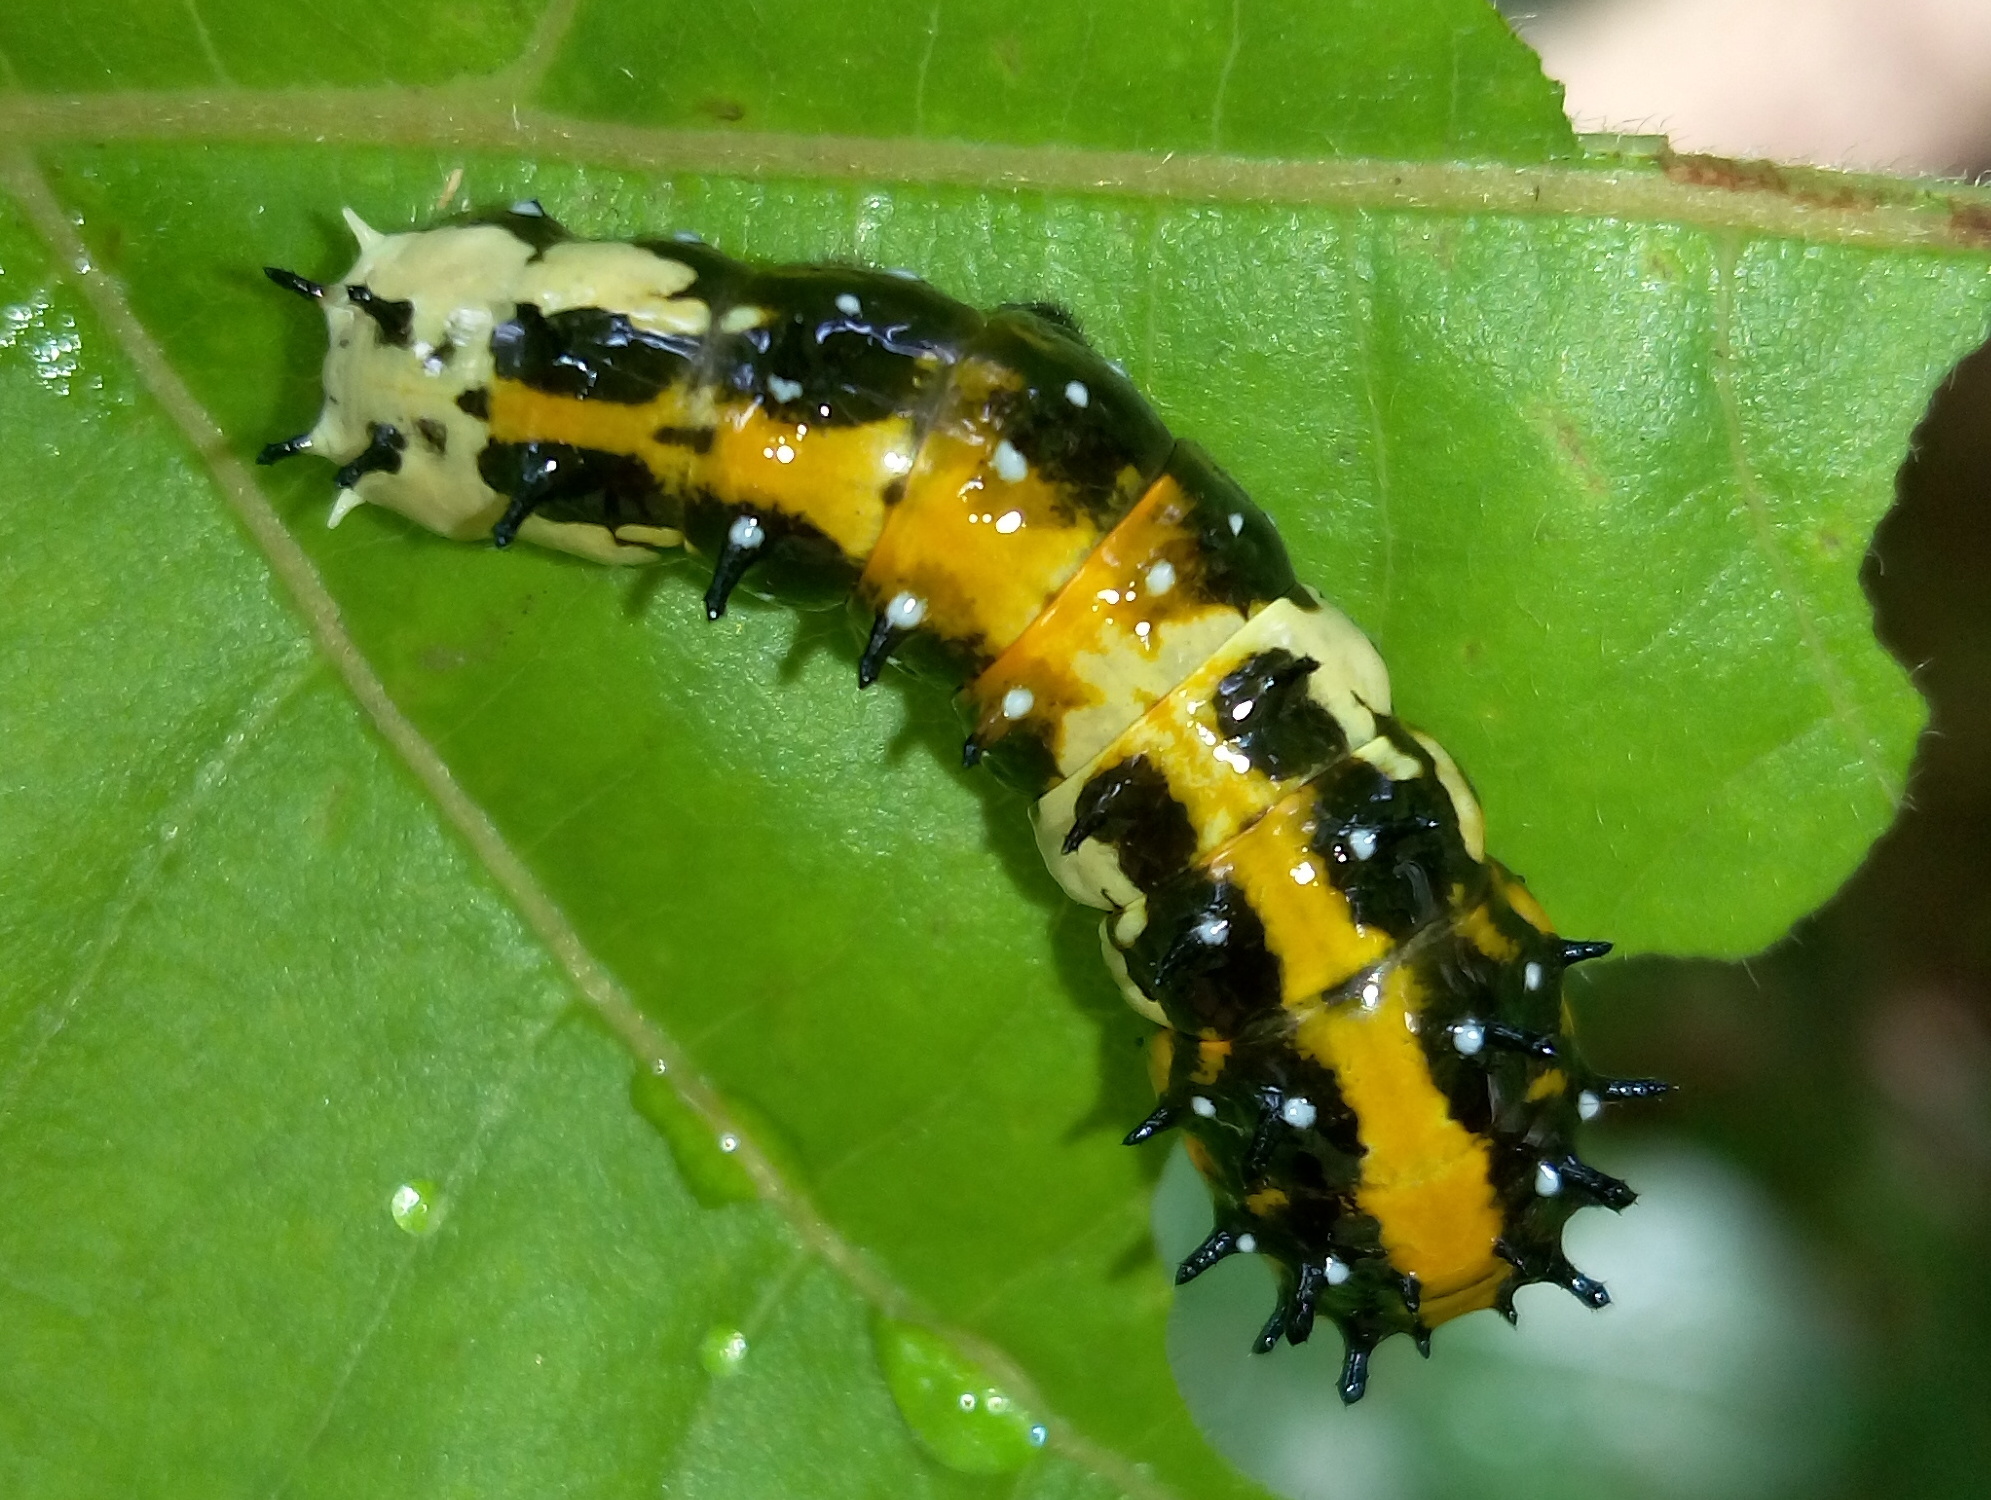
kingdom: Animalia
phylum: Arthropoda
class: Insecta
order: Lepidoptera
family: Papilionidae
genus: Chilasa
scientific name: Chilasa clytia
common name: Common mime
